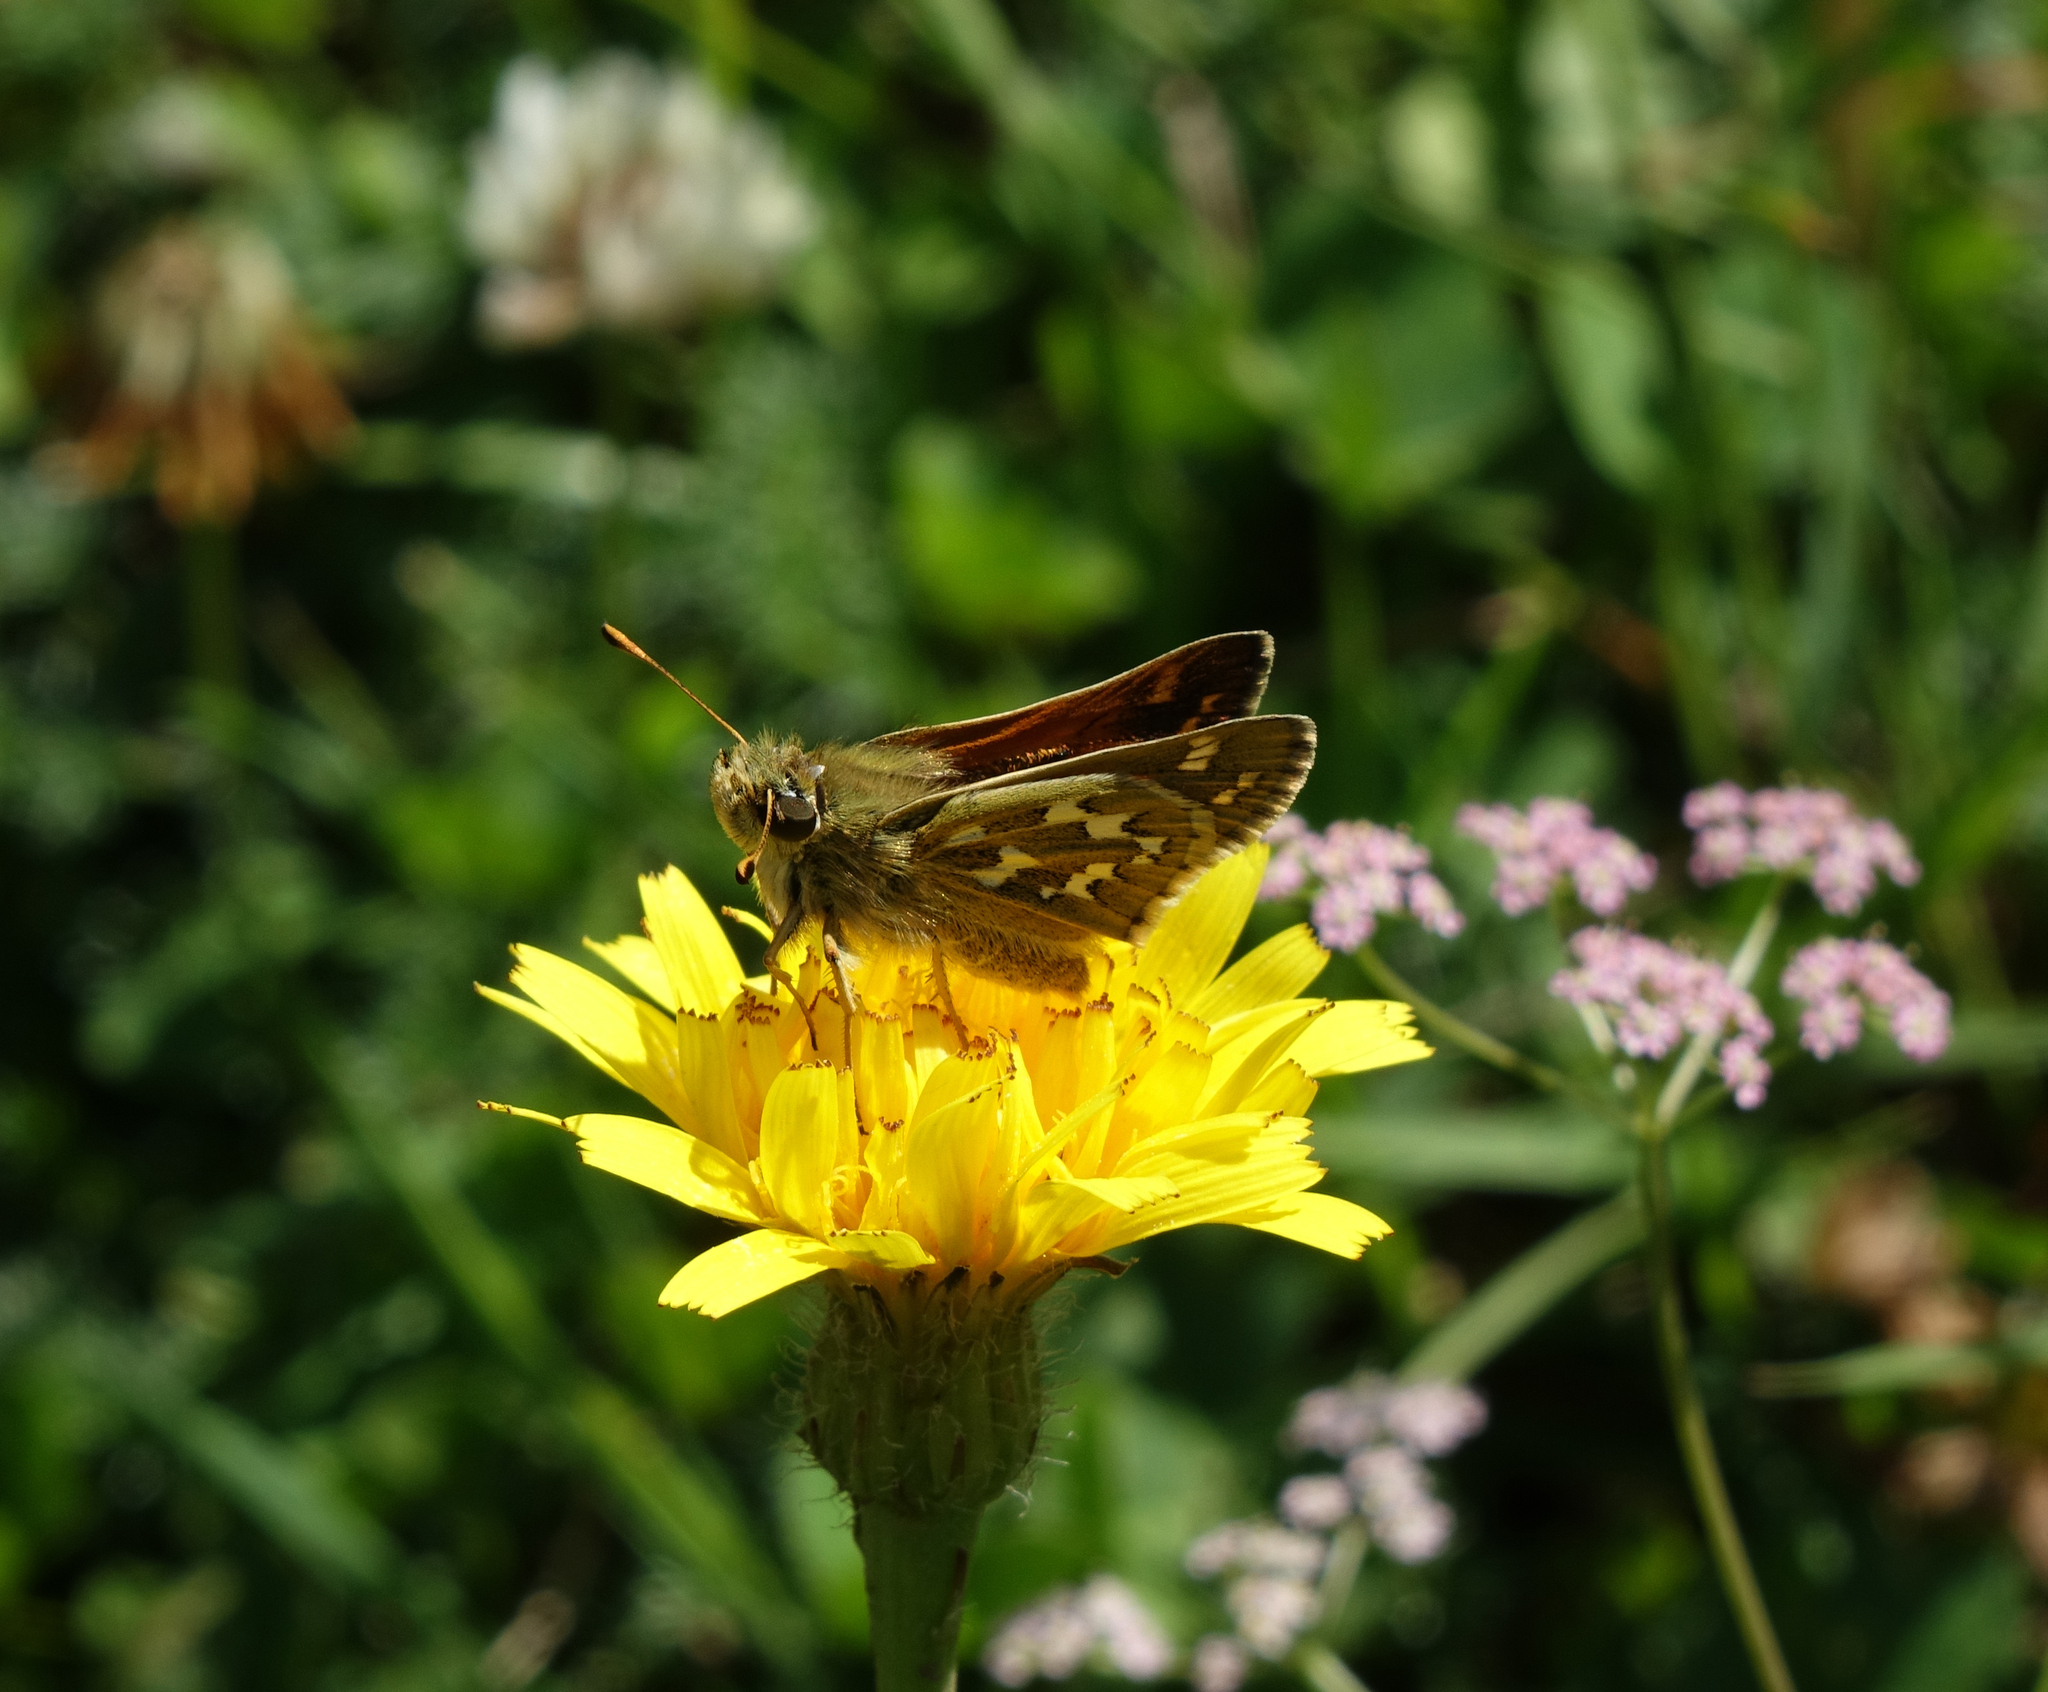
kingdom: Animalia
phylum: Arthropoda
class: Insecta
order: Lepidoptera
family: Hesperiidae
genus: Hesperia
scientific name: Hesperia comma
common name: Common branded skipper
